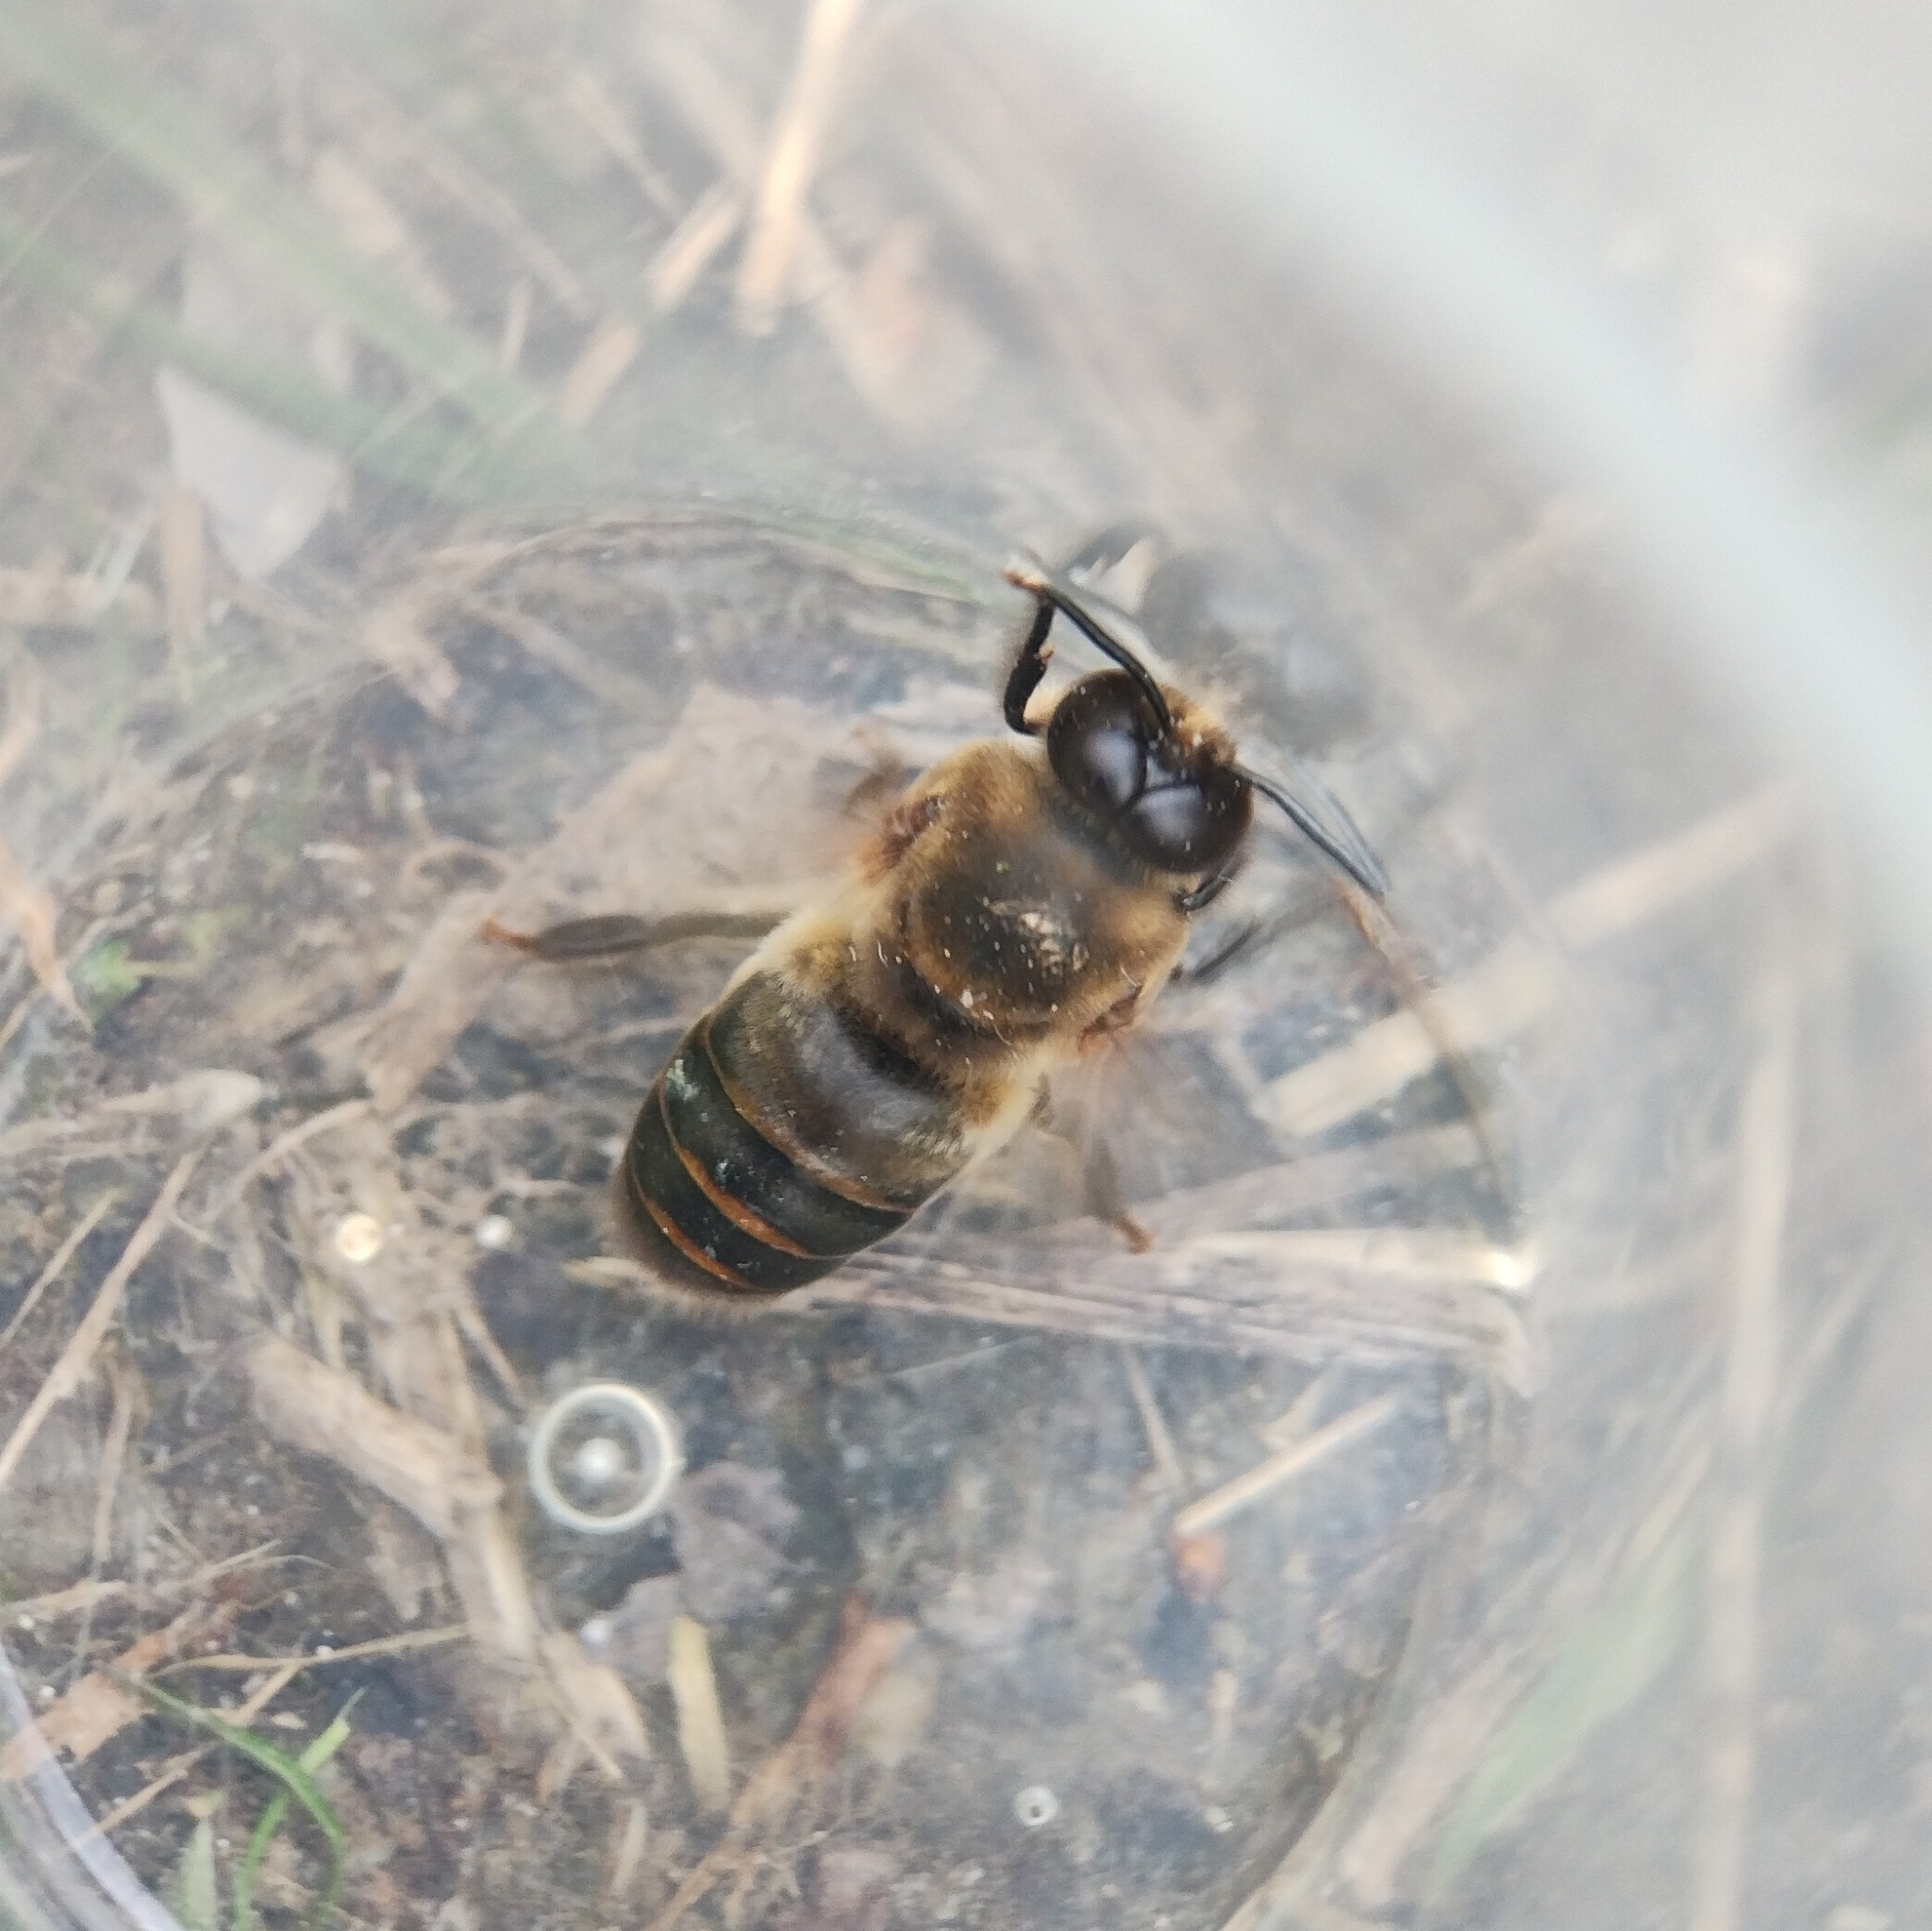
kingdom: Animalia
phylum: Arthropoda
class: Insecta
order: Hymenoptera
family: Apidae
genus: Apis
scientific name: Apis mellifera
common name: Honey bee
